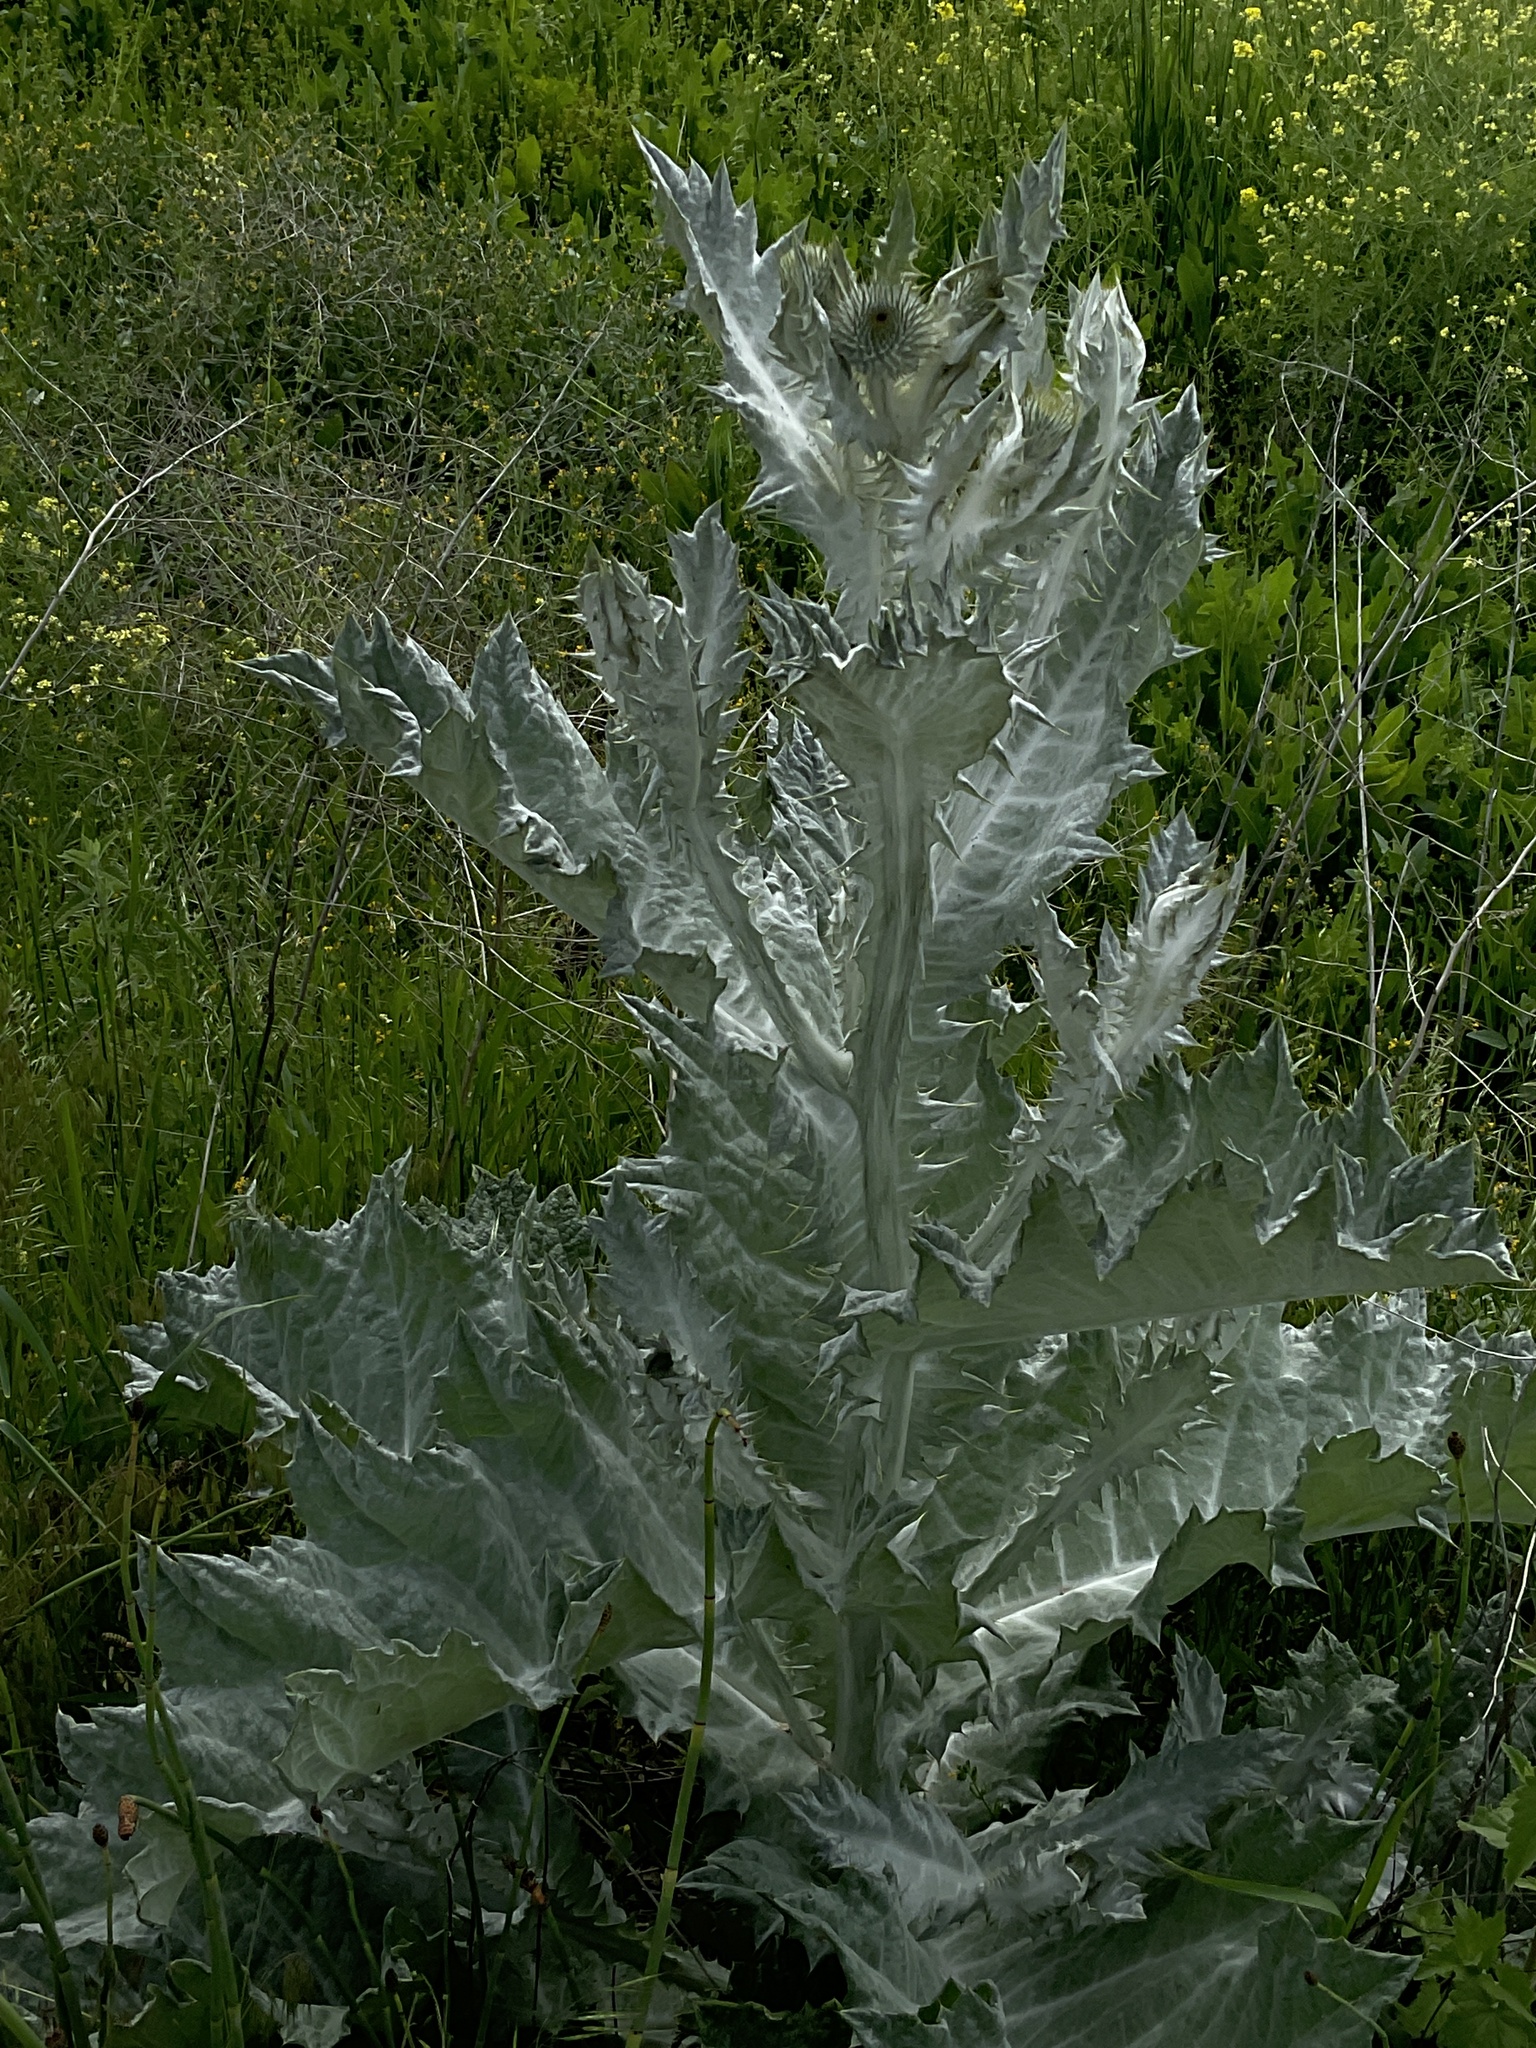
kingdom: Plantae
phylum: Tracheophyta
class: Magnoliopsida
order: Asterales
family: Asteraceae
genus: Onopordum
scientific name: Onopordum acanthium
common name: Scotch thistle
